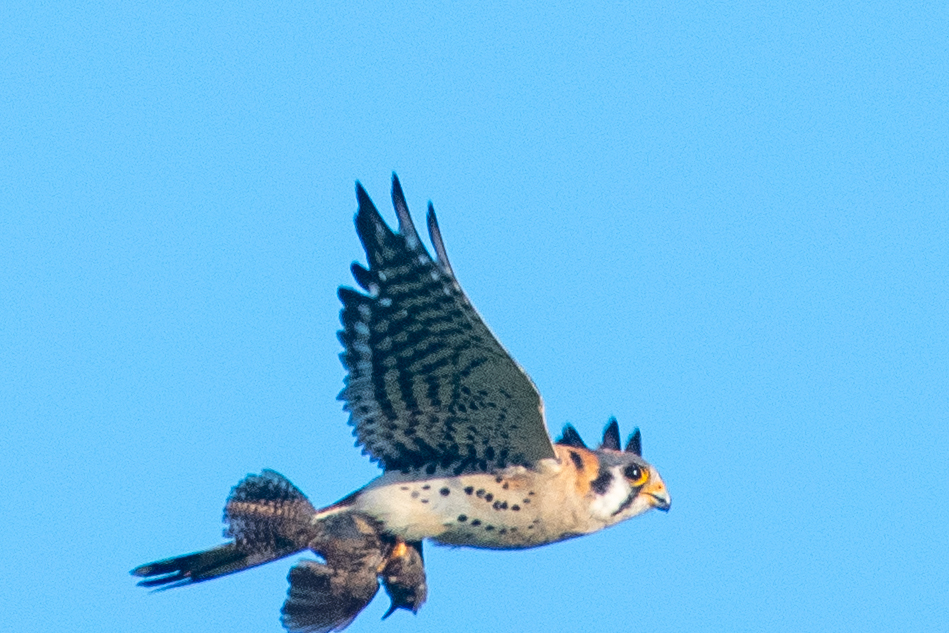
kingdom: Animalia
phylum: Chordata
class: Aves
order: Falconiformes
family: Falconidae
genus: Falco
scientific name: Falco sparverius
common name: American kestrel
